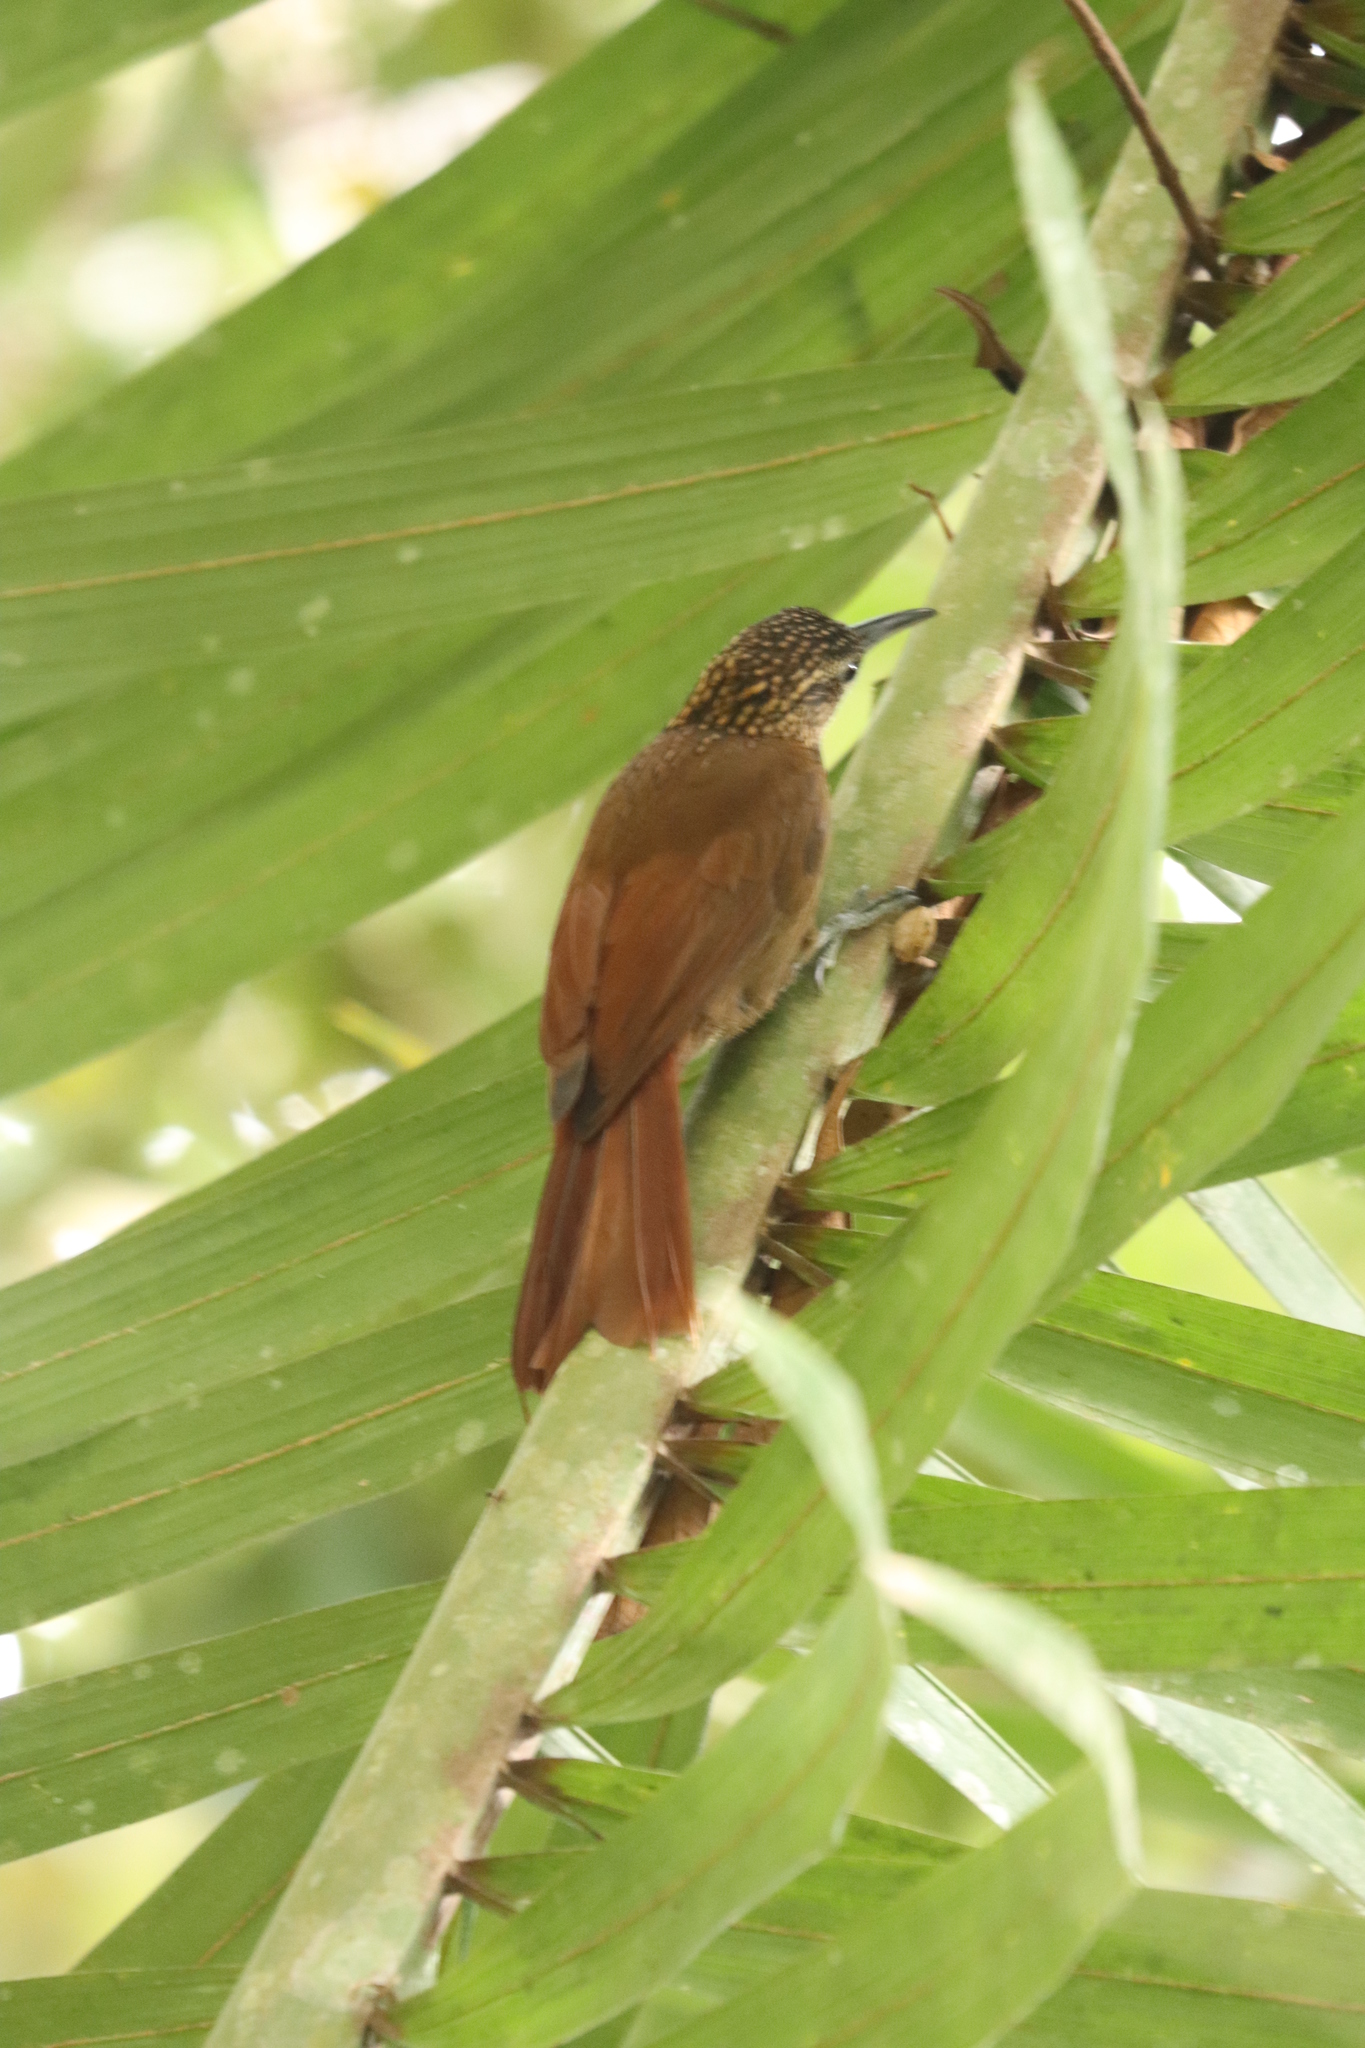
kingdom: Animalia
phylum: Chordata
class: Aves
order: Passeriformes
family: Furnariidae
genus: Xiphorhynchus
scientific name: Xiphorhynchus susurrans
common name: Cocoa woodcreeper
